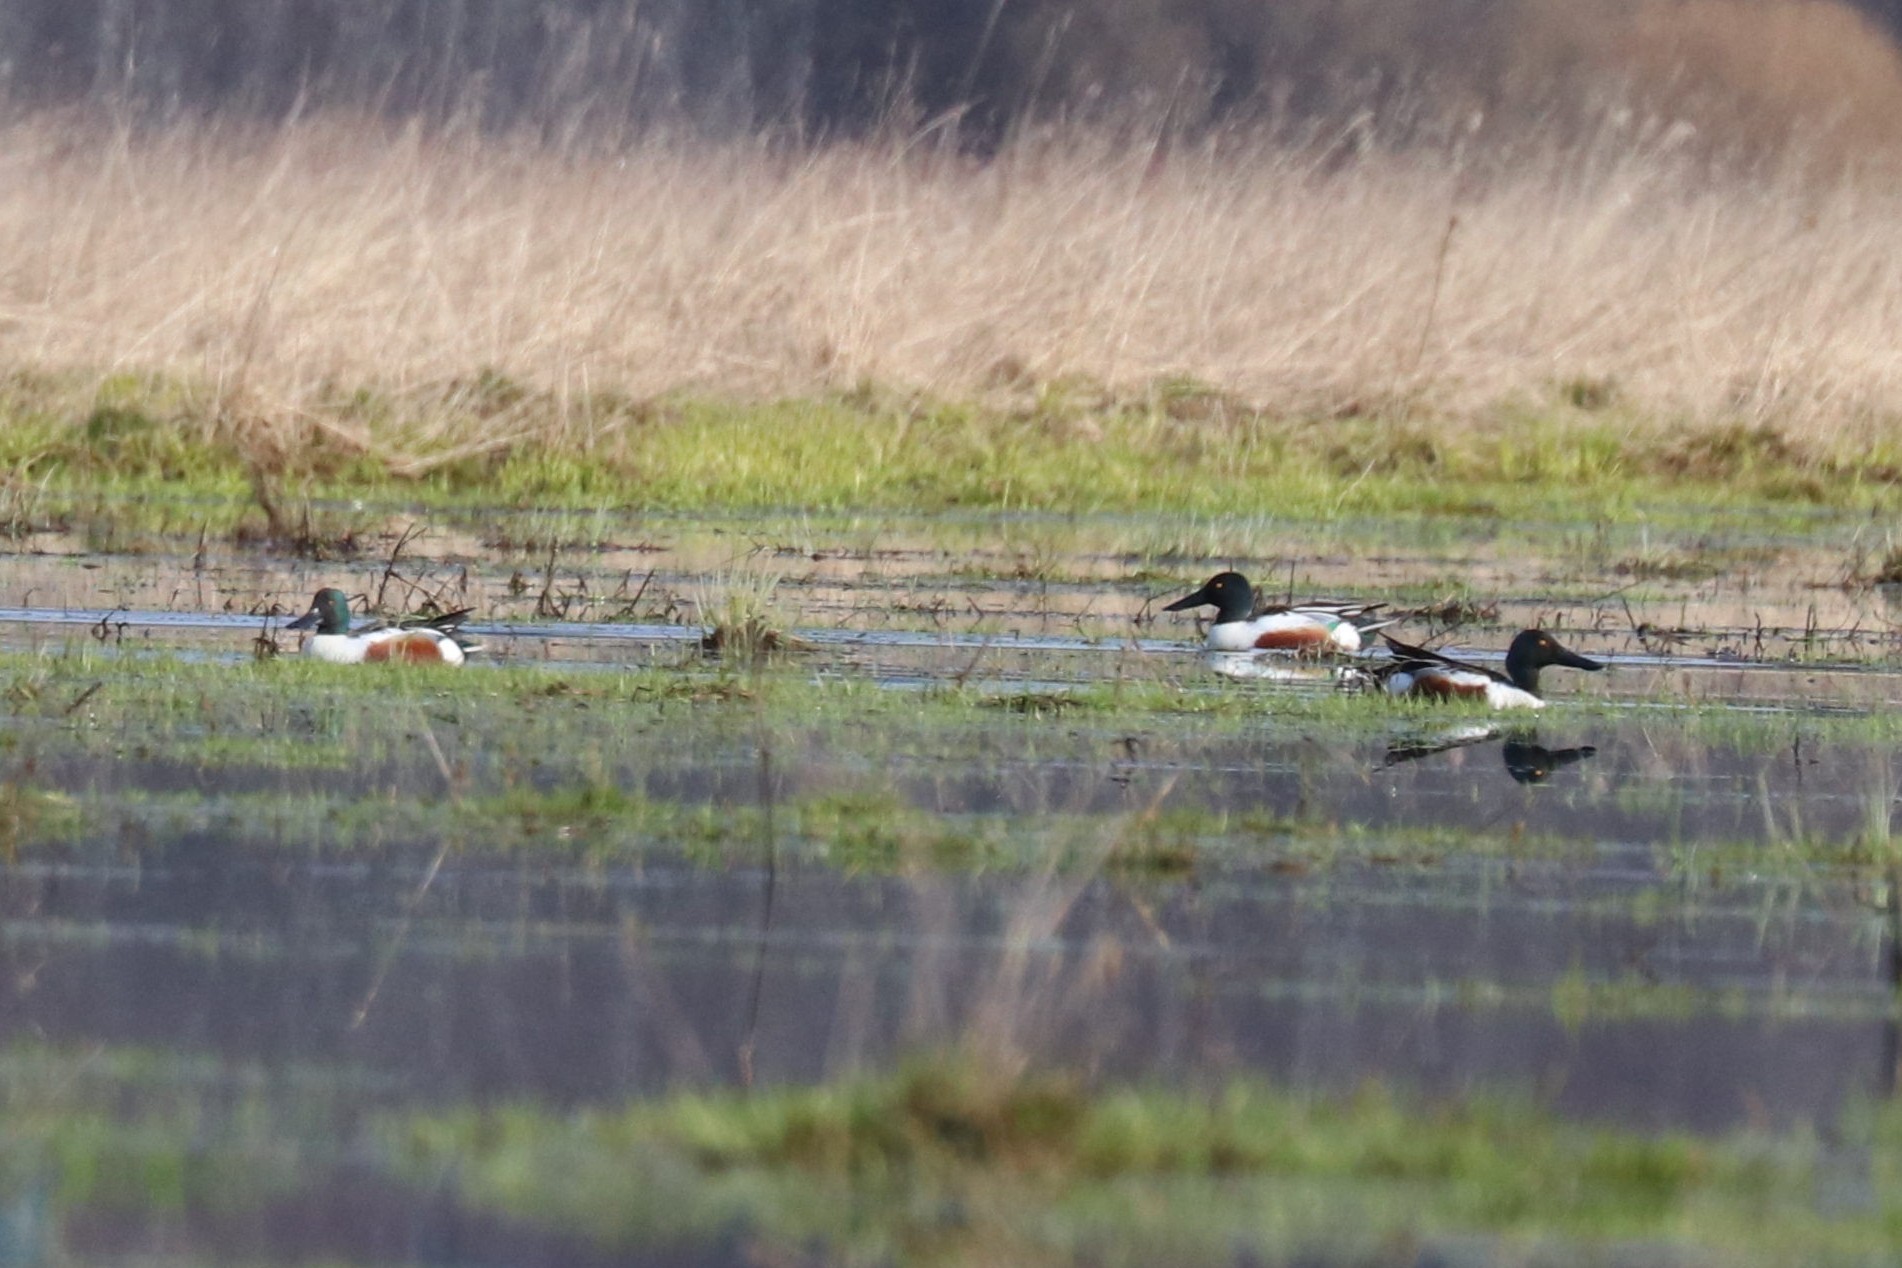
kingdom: Animalia
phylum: Chordata
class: Aves
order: Anseriformes
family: Anatidae
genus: Spatula
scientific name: Spatula clypeata
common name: Northern shoveler
